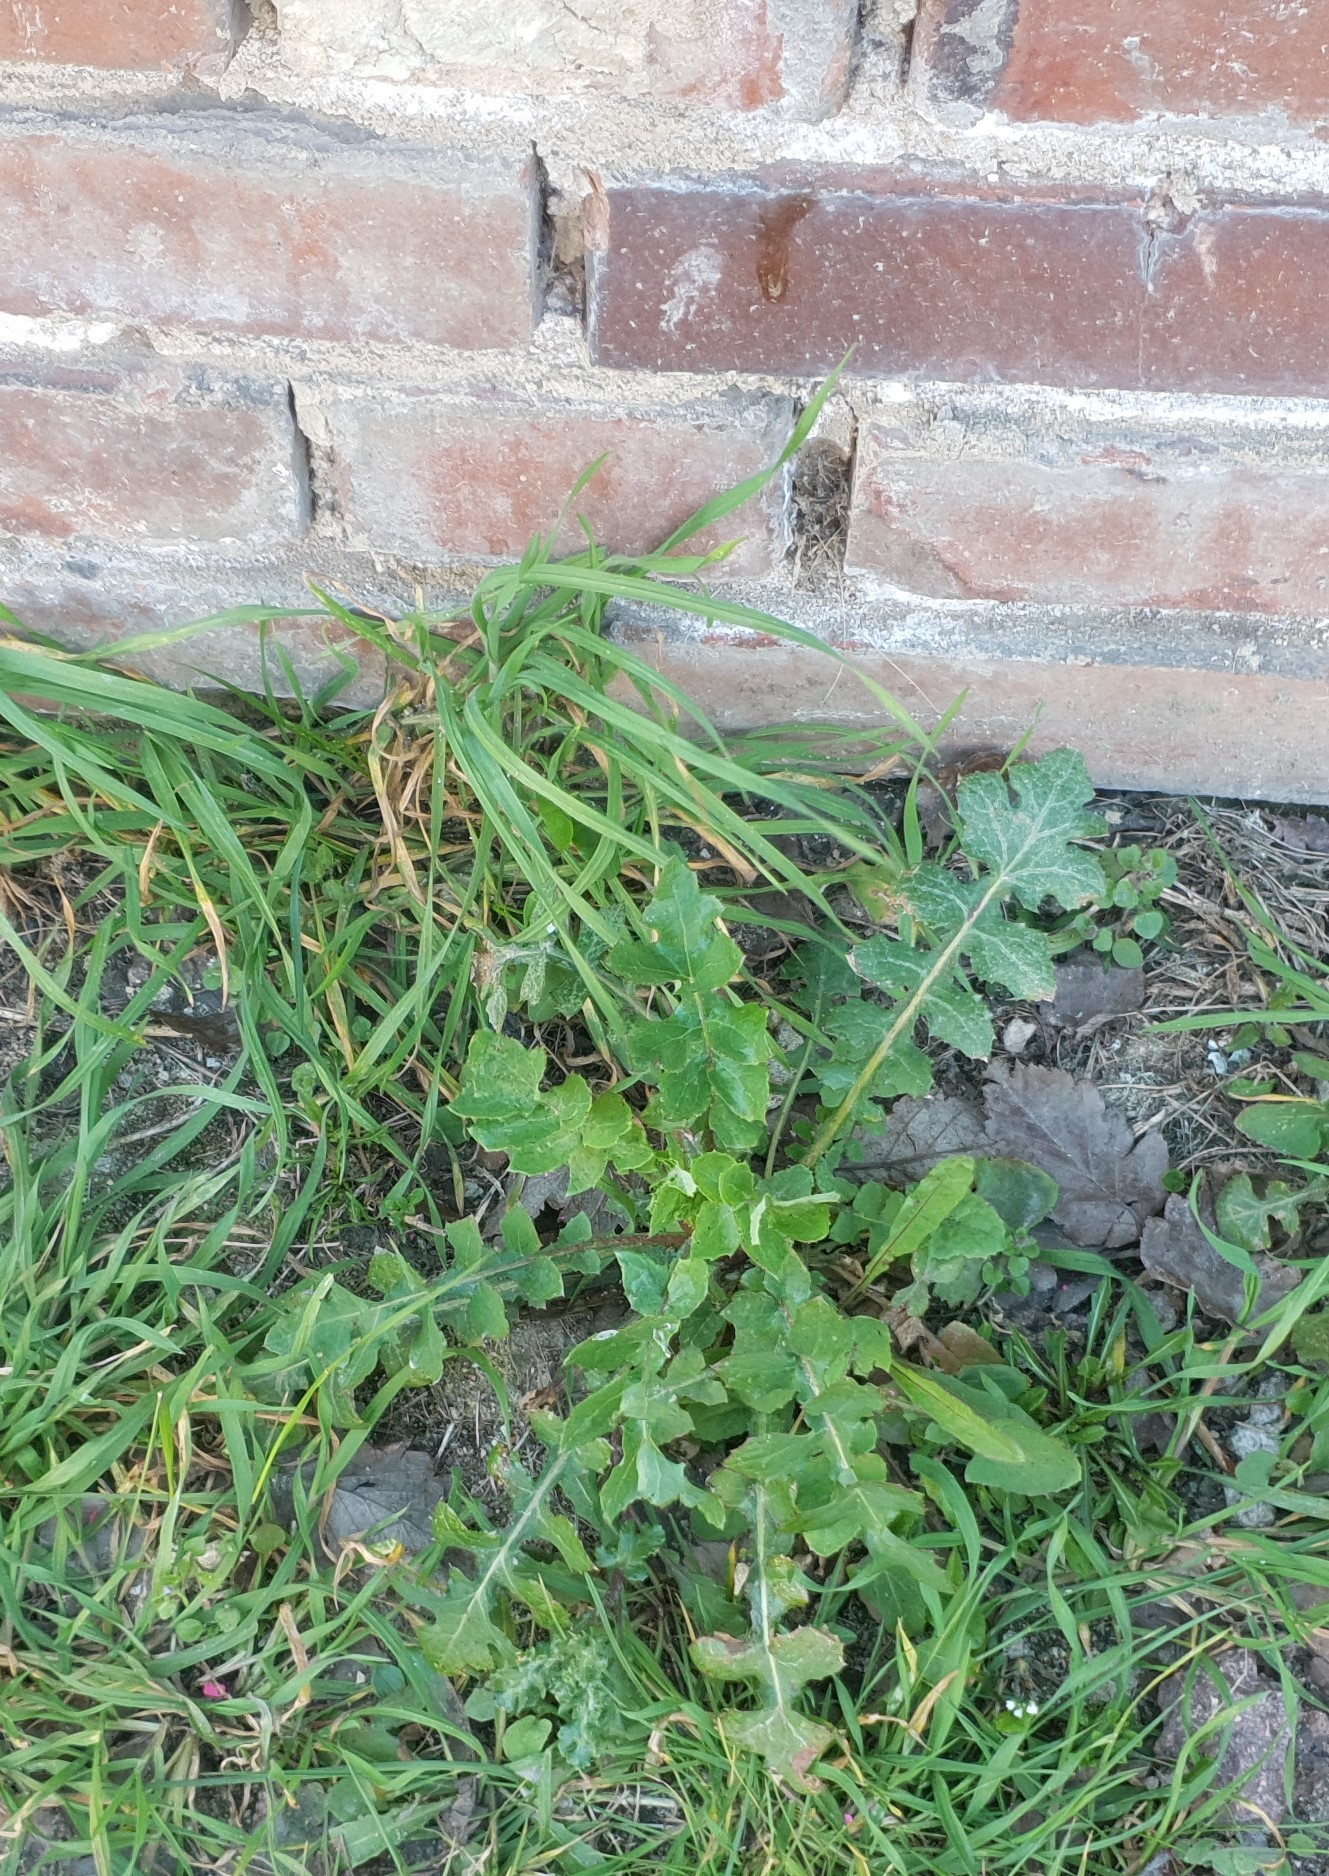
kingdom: Plantae
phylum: Tracheophyta
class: Magnoliopsida
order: Asterales
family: Asteraceae
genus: Sonchus
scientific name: Sonchus oleraceus
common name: Common sowthistle
